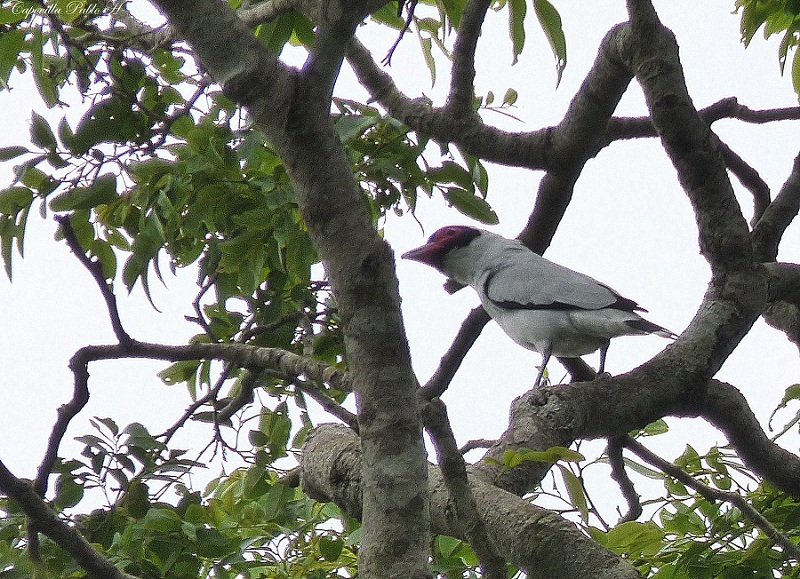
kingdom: Animalia
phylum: Chordata
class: Aves
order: Passeriformes
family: Cotingidae
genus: Tityra
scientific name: Tityra semifasciata
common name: Masked tityra
